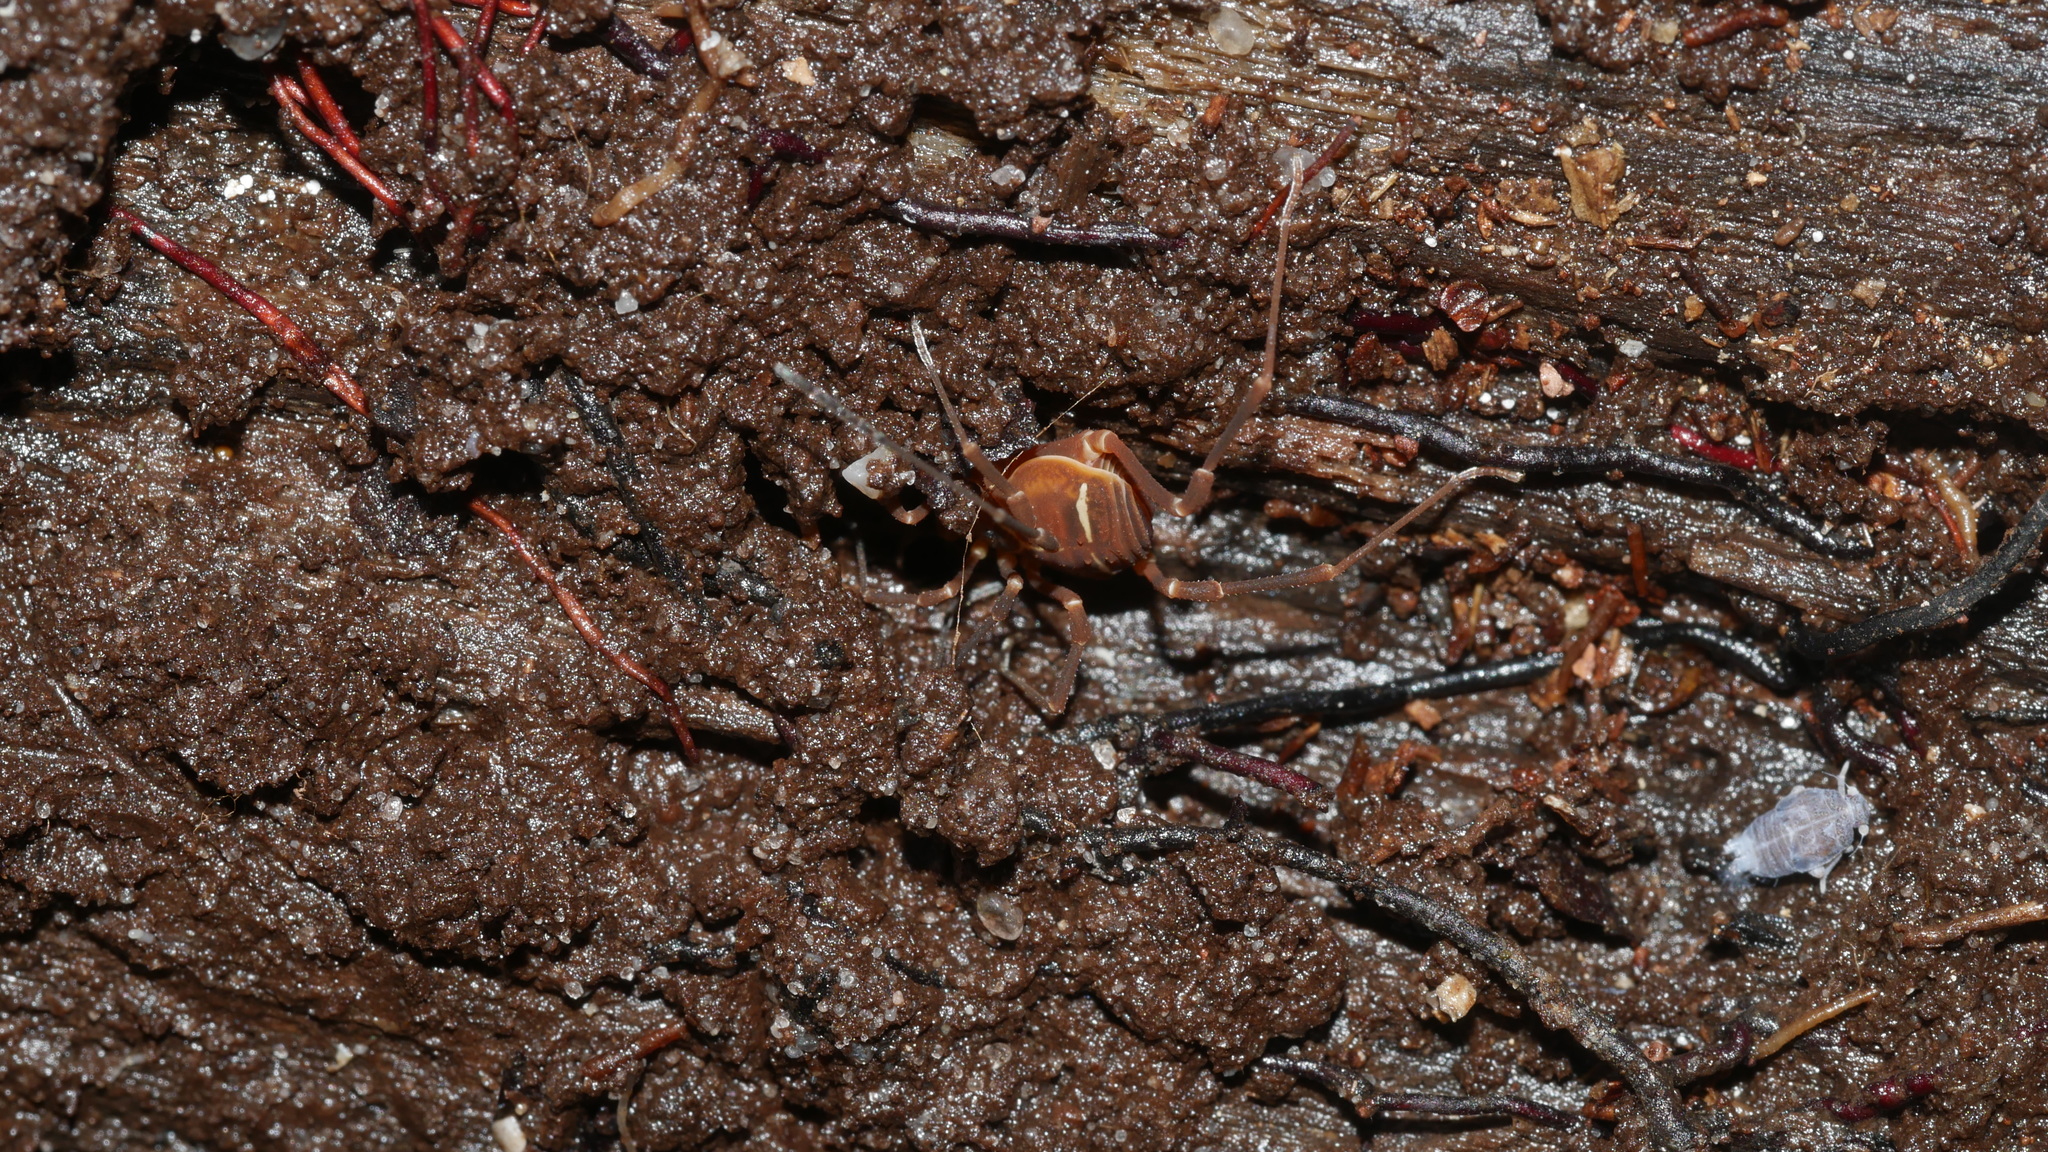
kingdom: Animalia
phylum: Arthropoda
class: Arachnida
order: Opiliones
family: Cosmetidae
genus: Libitioides
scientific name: Libitioides sayi
